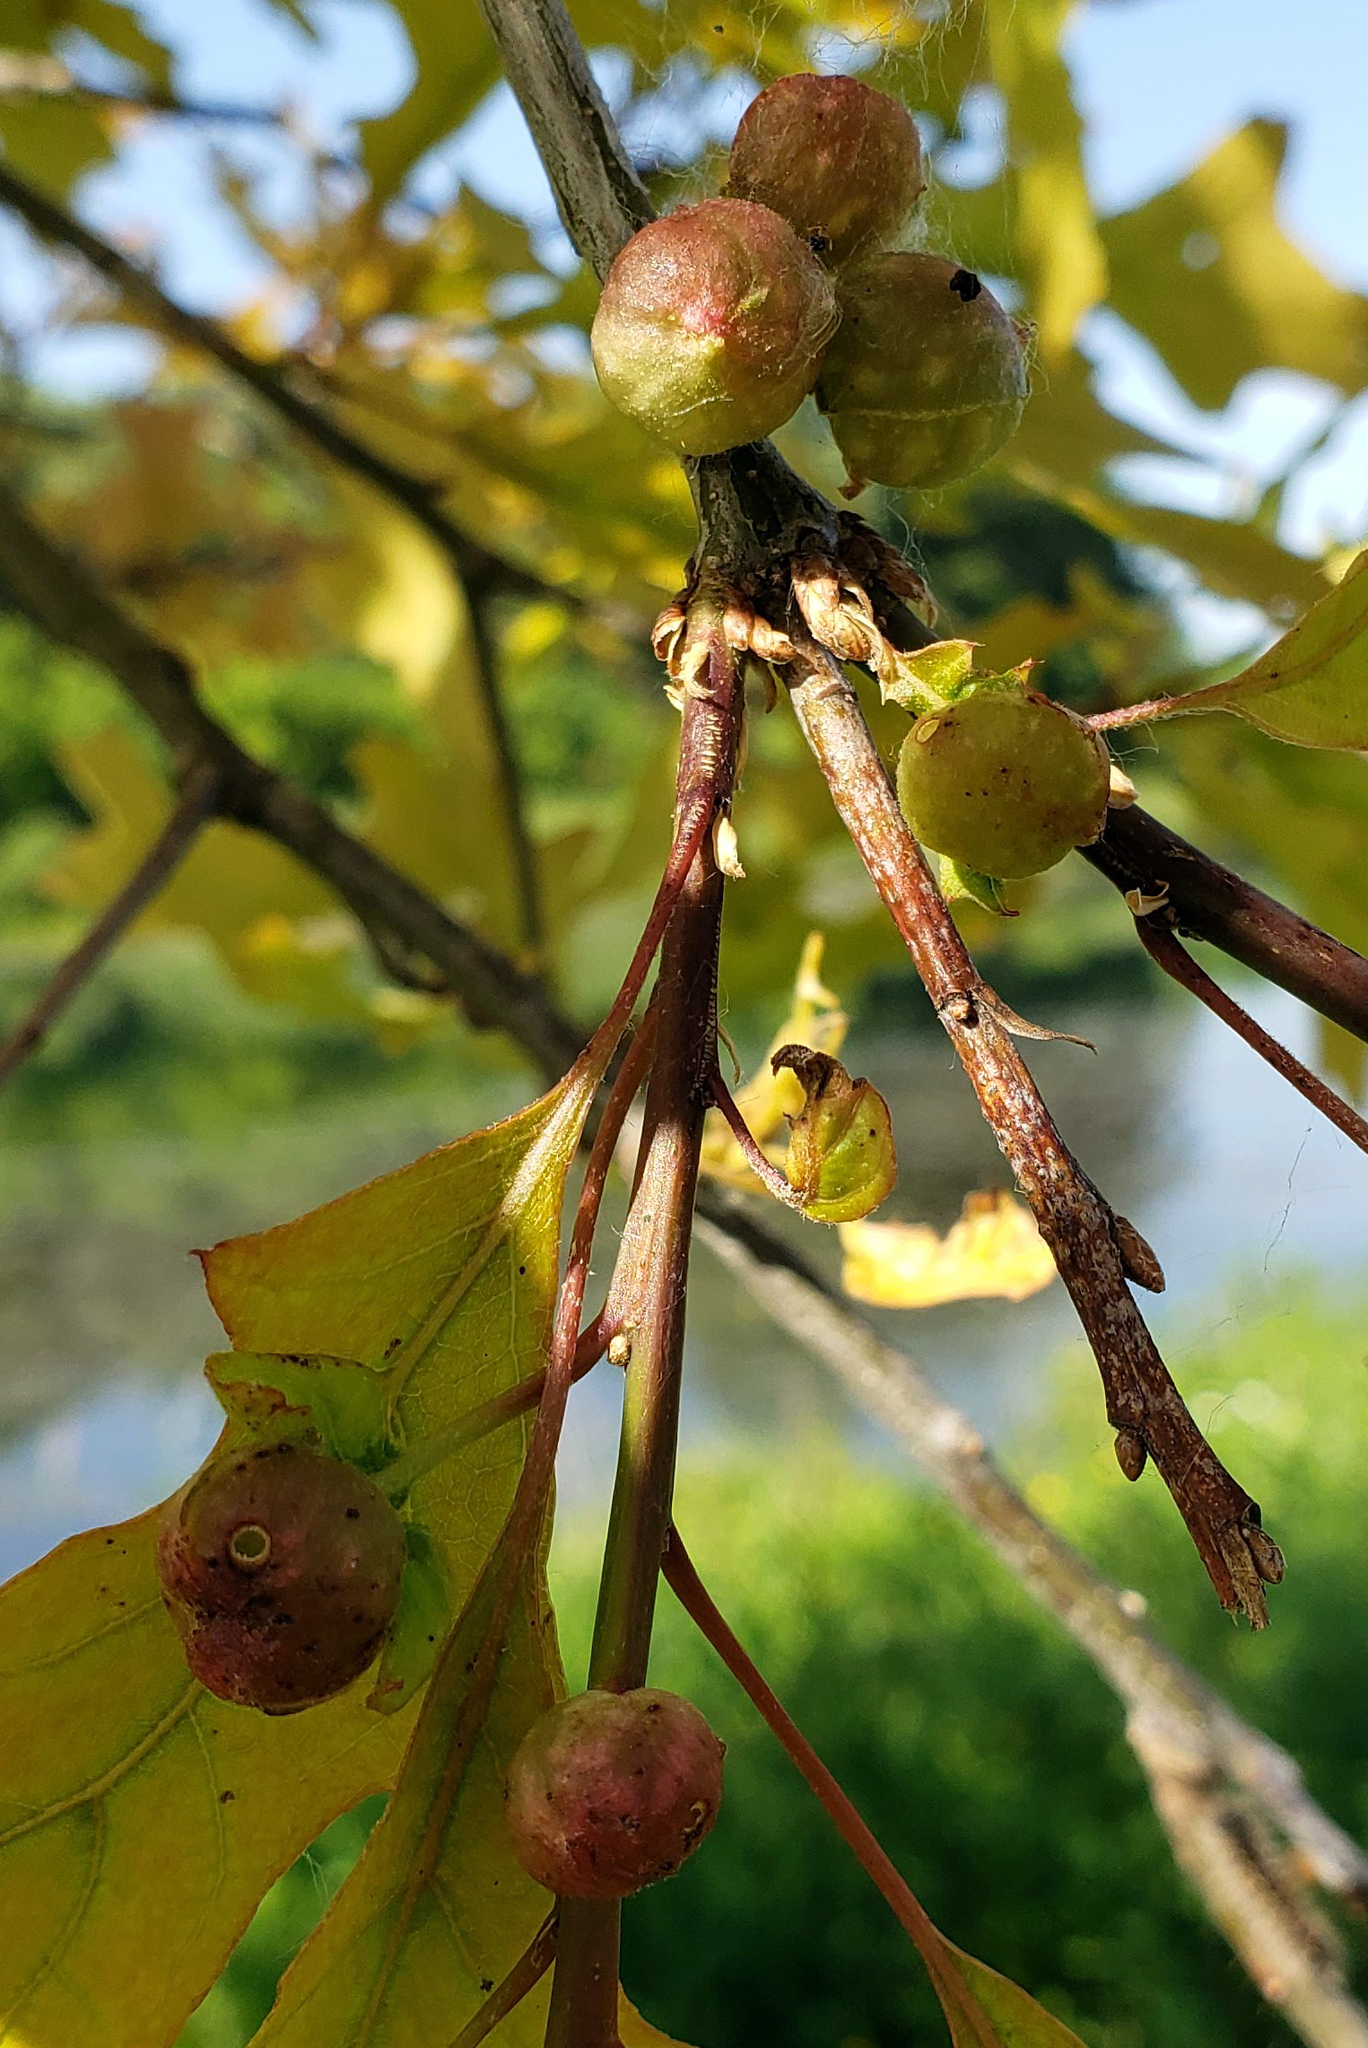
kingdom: Animalia
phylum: Arthropoda
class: Insecta
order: Hymenoptera
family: Cynipidae
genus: Dryocosmus
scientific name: Dryocosmus quercuspalustris
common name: Succulent oak gall wasp
